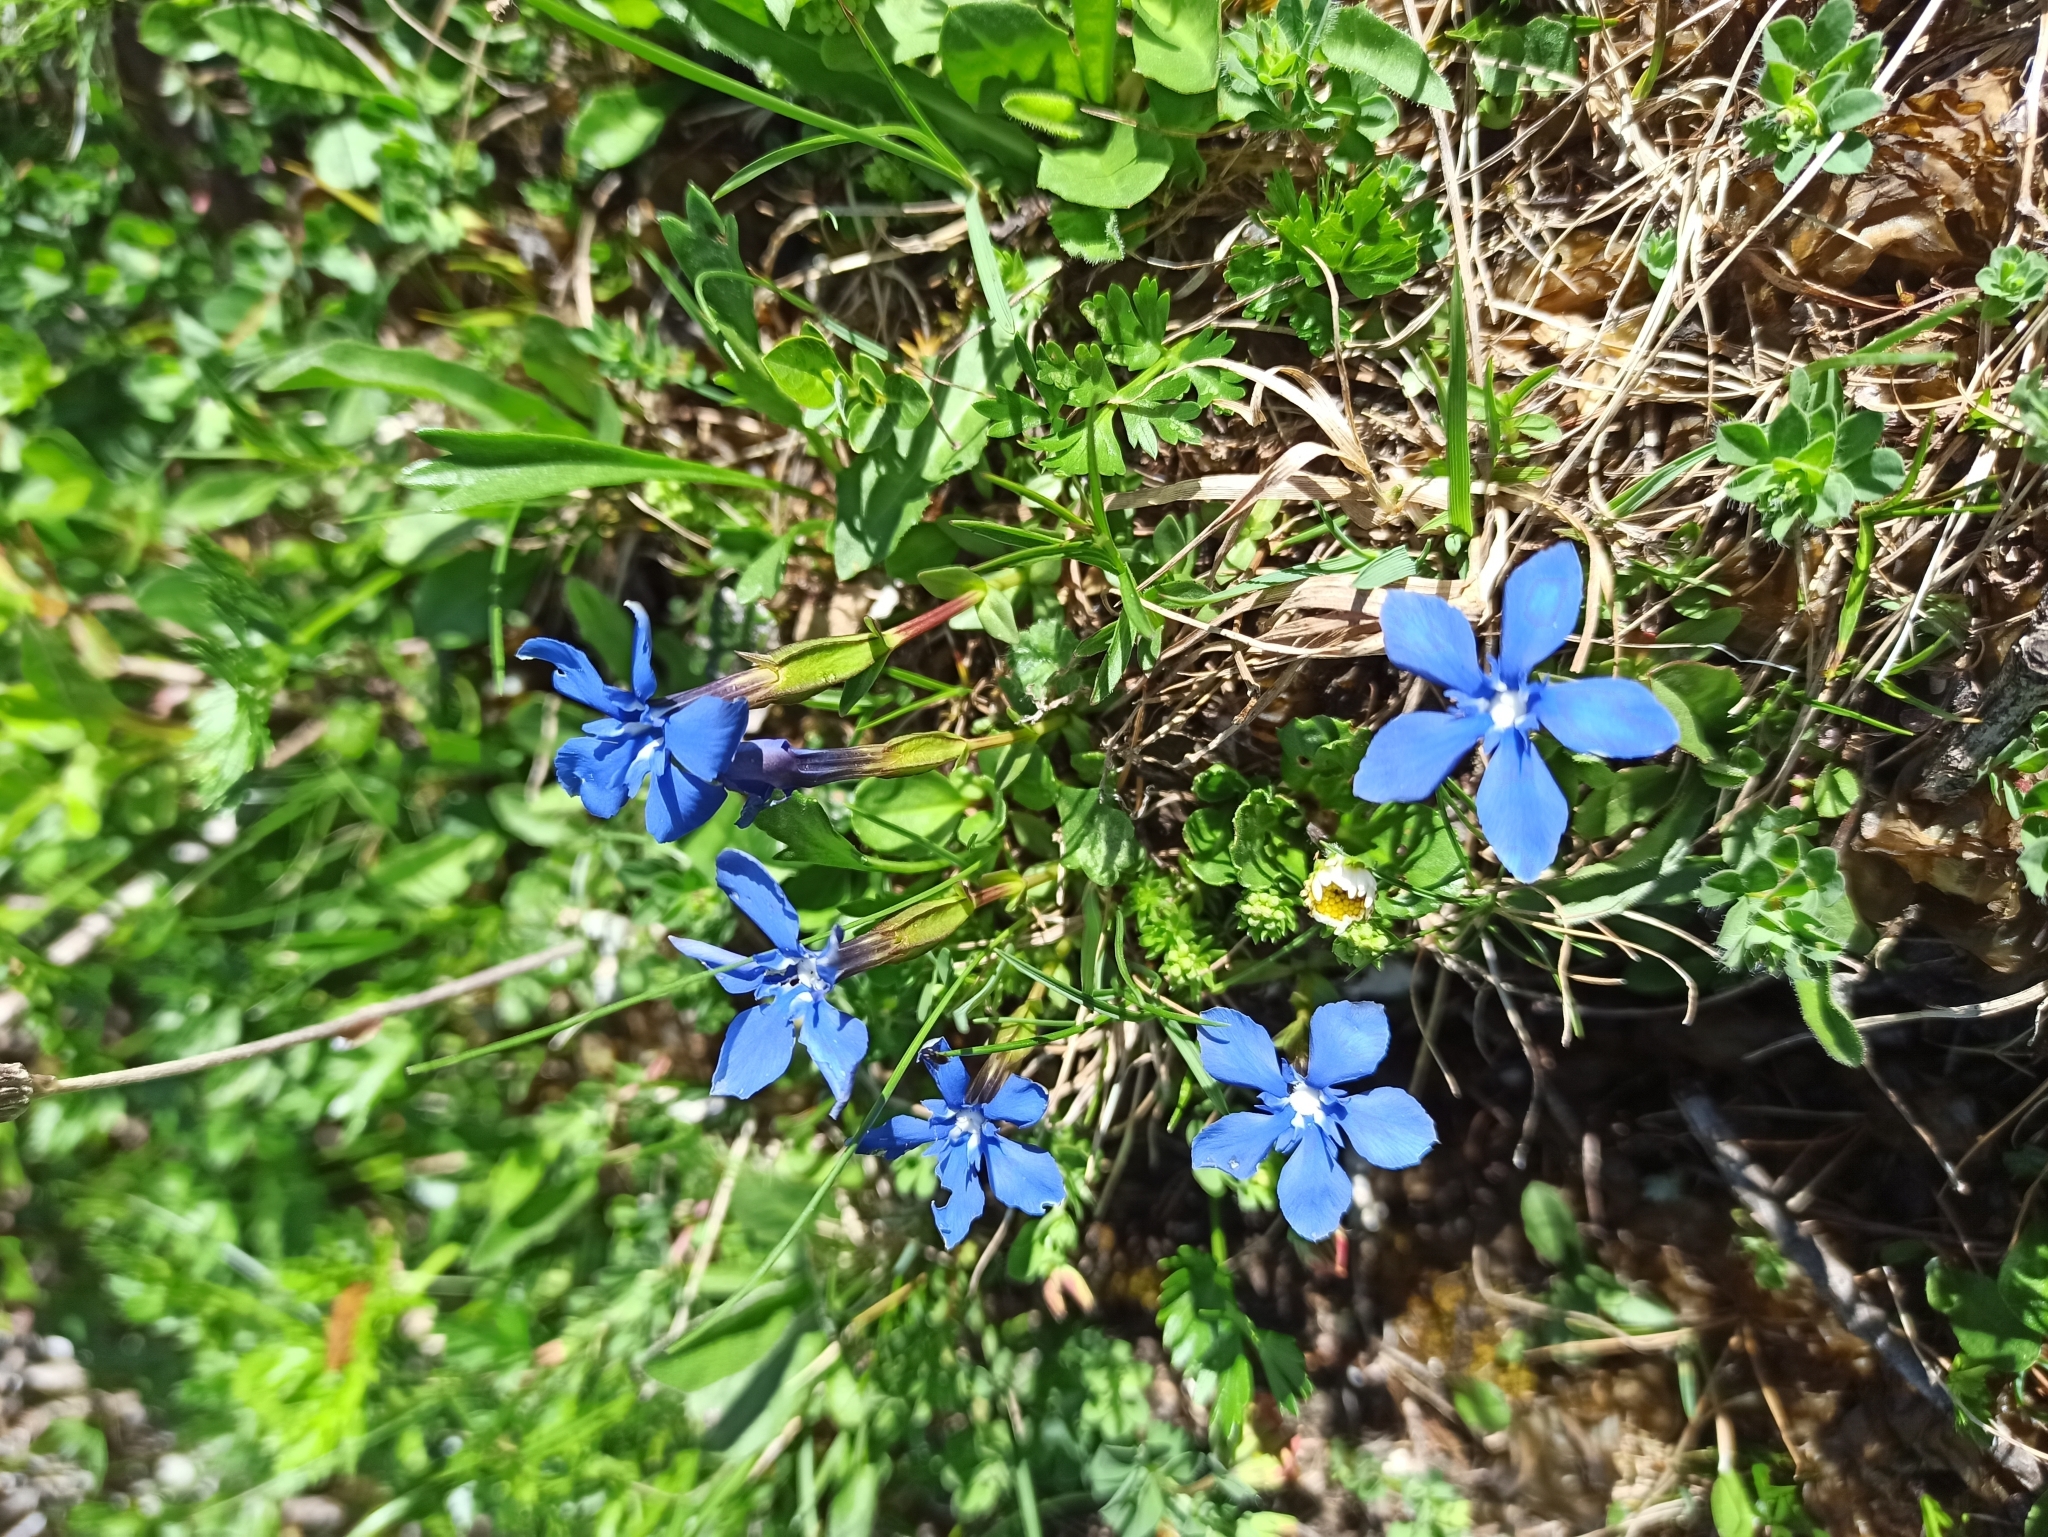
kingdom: Plantae
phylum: Tracheophyta
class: Magnoliopsida
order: Gentianales
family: Gentianaceae
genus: Gentiana
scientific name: Gentiana verna
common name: Spring gentian
